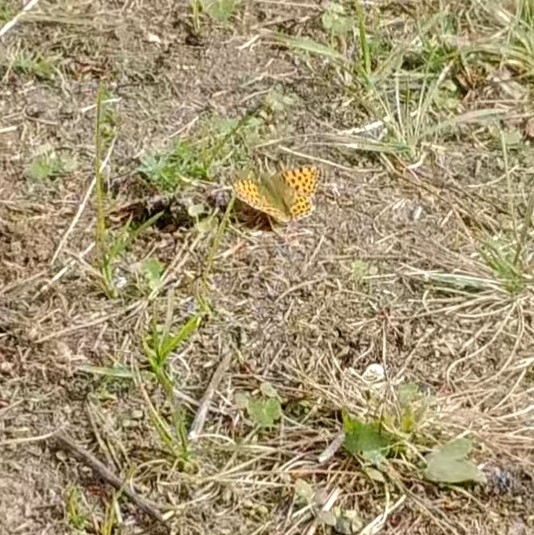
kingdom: Animalia
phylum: Arthropoda
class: Insecta
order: Lepidoptera
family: Nymphalidae
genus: Issoria
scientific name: Issoria lathonia
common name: Queen of spain fritillary
